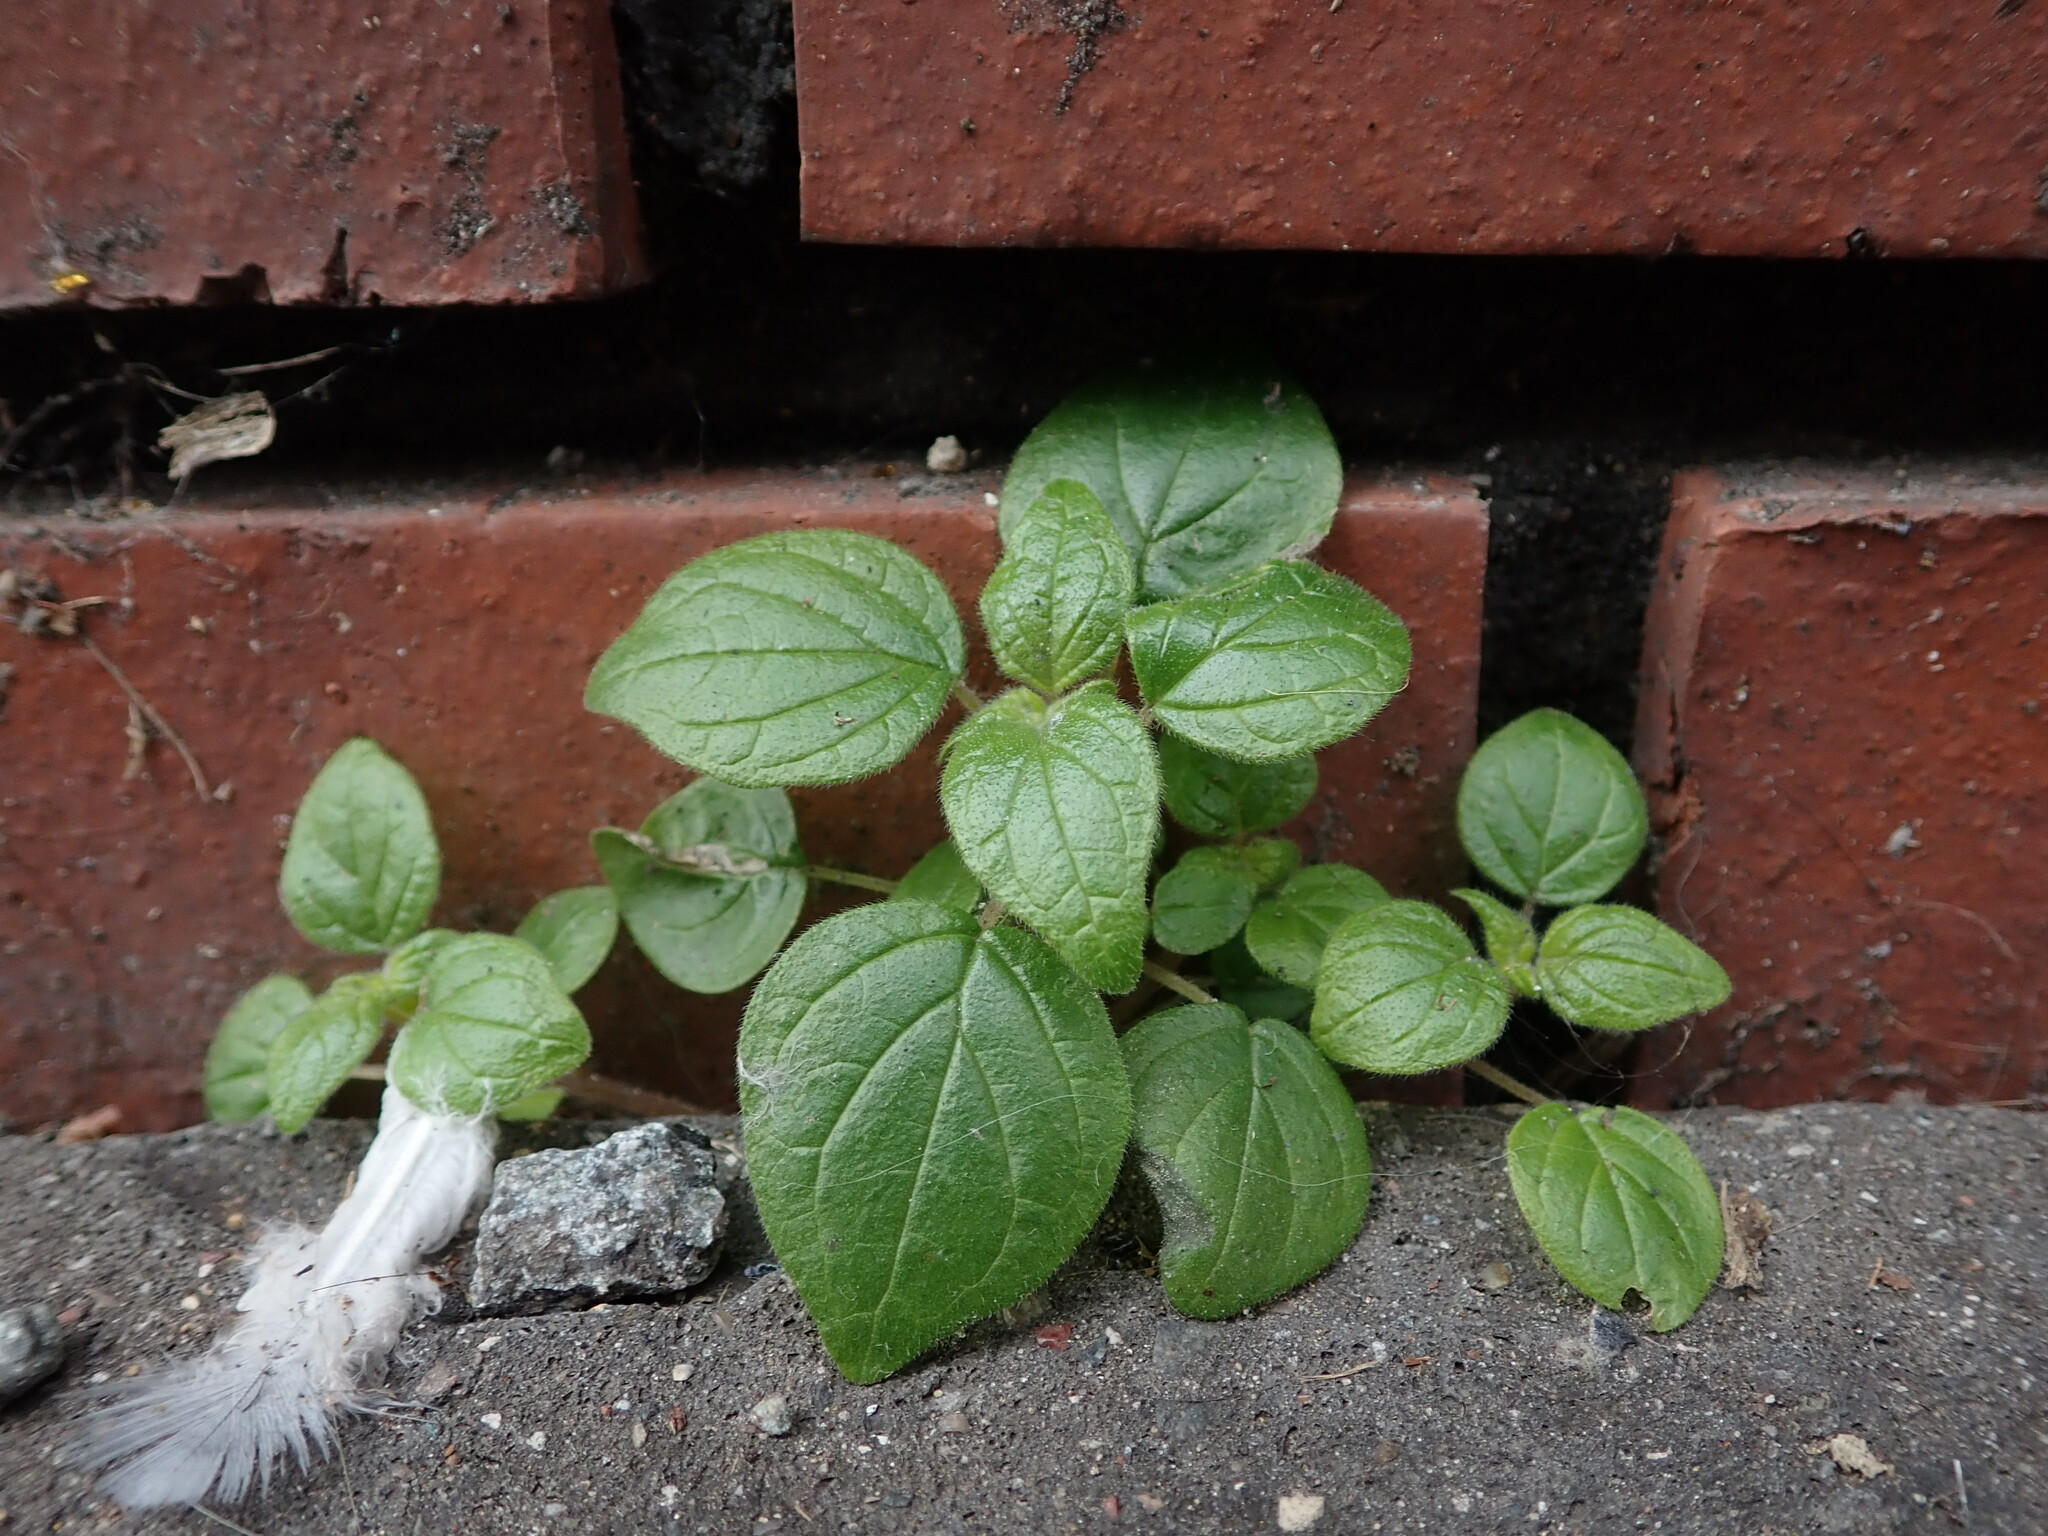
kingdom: Plantae
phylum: Tracheophyta
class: Magnoliopsida
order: Rosales
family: Urticaceae
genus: Parietaria
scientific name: Parietaria judaica
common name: Pellitory-of-the-wall
